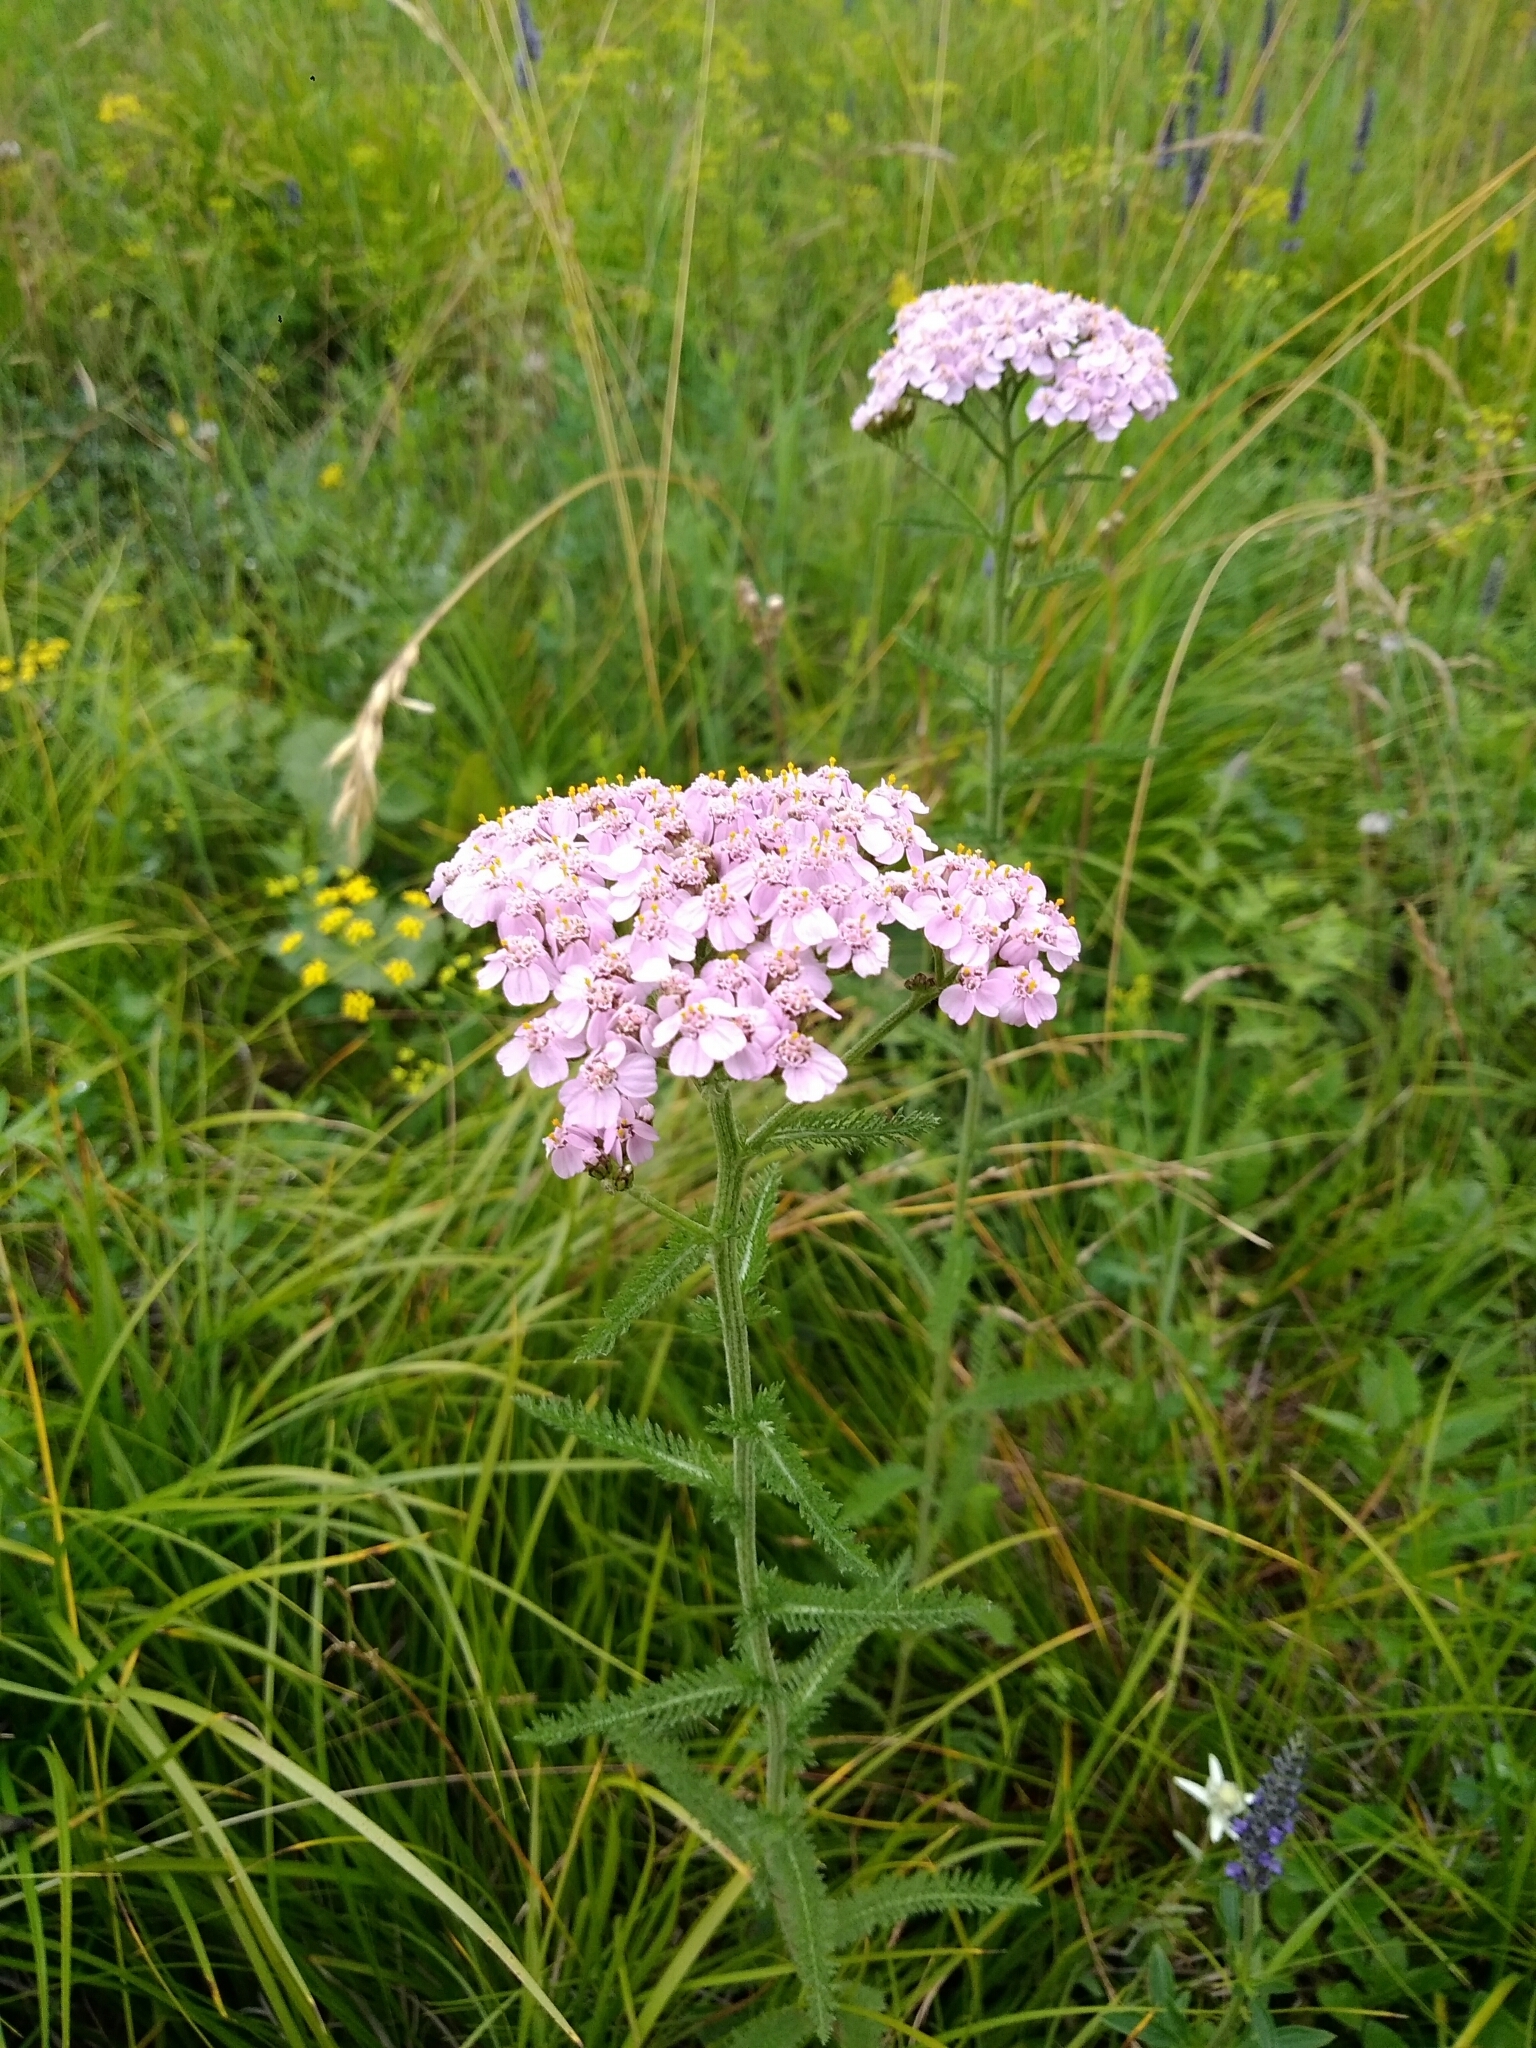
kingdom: Plantae
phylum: Tracheophyta
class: Magnoliopsida
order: Asterales
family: Asteraceae
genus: Achillea
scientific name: Achillea asiatica
